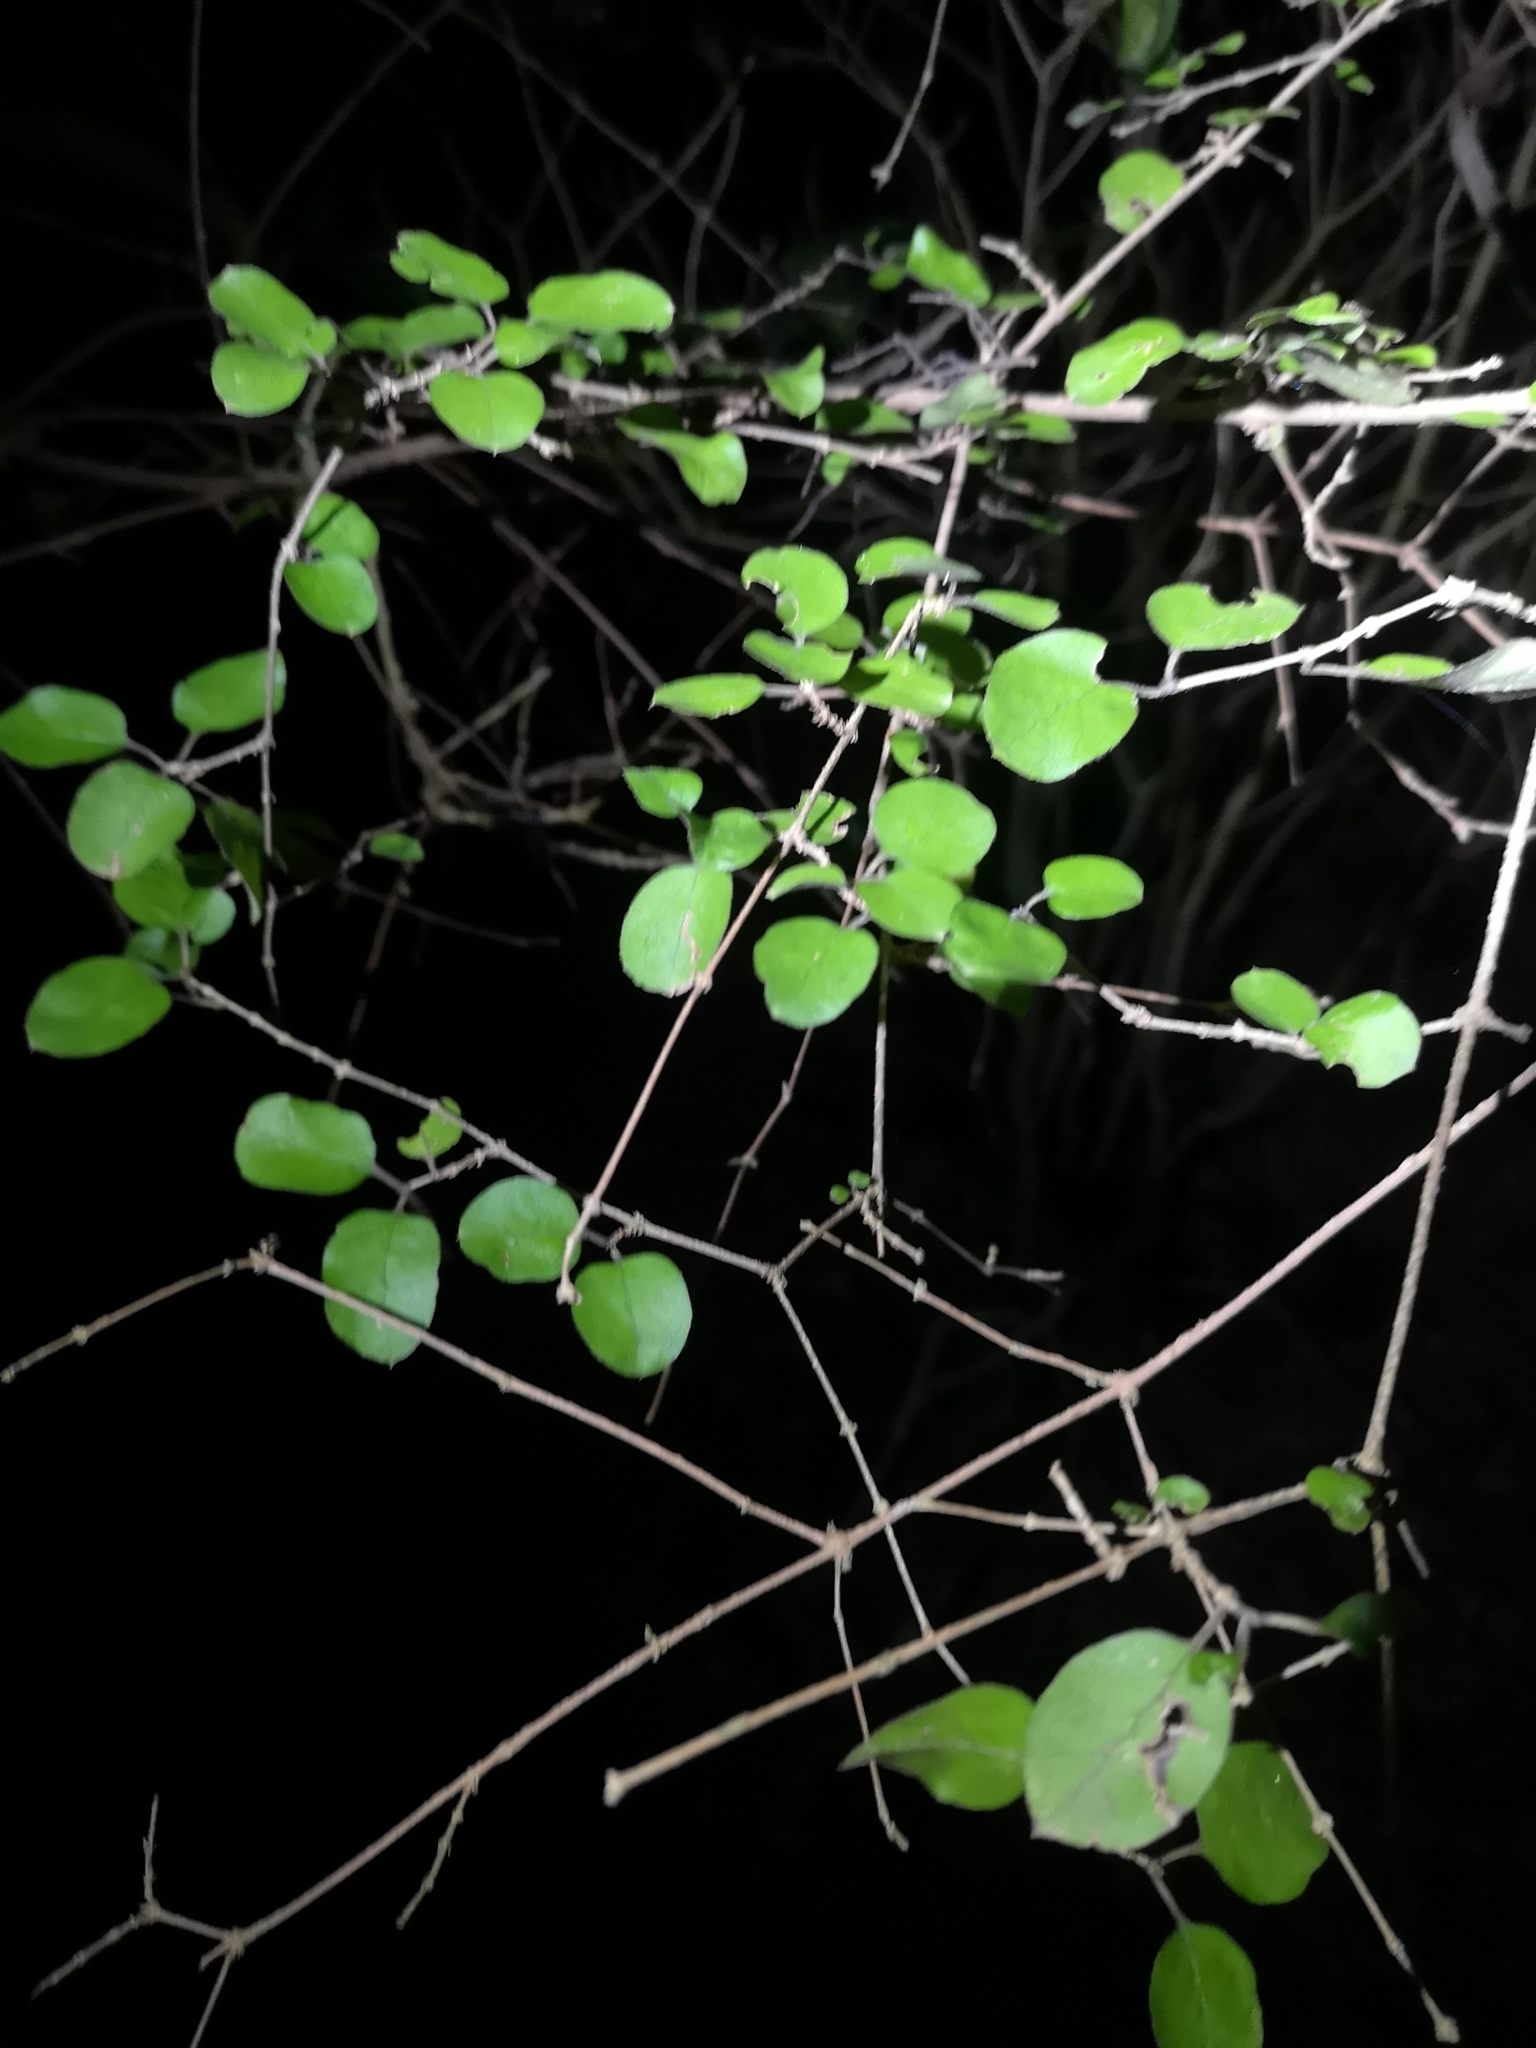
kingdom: Plantae
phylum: Tracheophyta
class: Magnoliopsida
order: Gentianales
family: Rubiaceae
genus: Coprosma
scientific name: Coprosma rotundifolia
